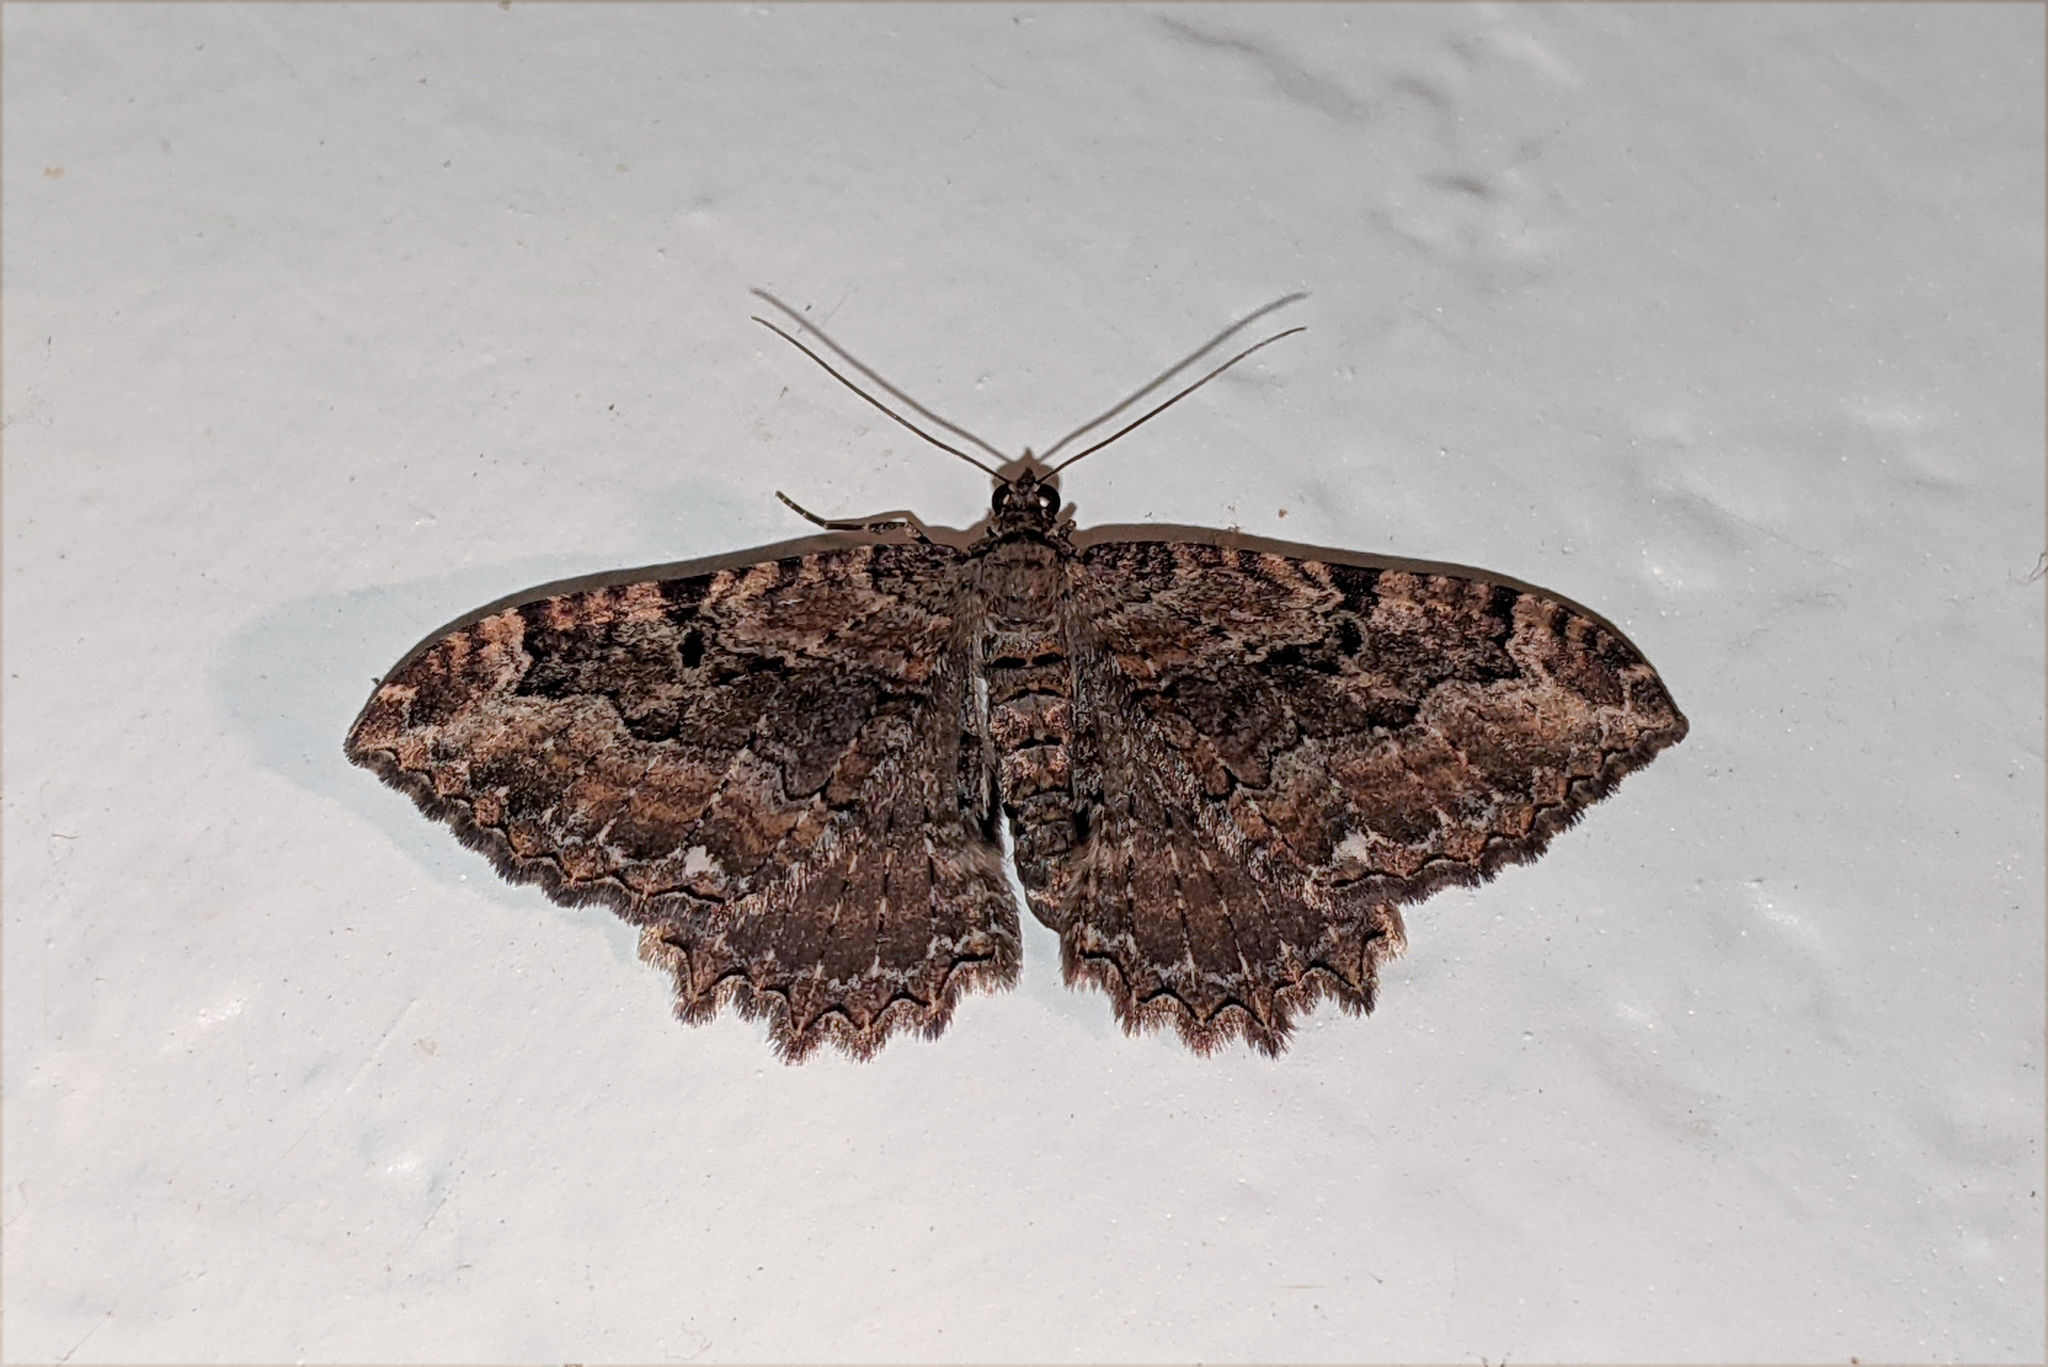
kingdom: Animalia
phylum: Arthropoda
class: Insecta
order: Lepidoptera
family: Geometridae
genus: Rheumaptera
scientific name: Rheumaptera
